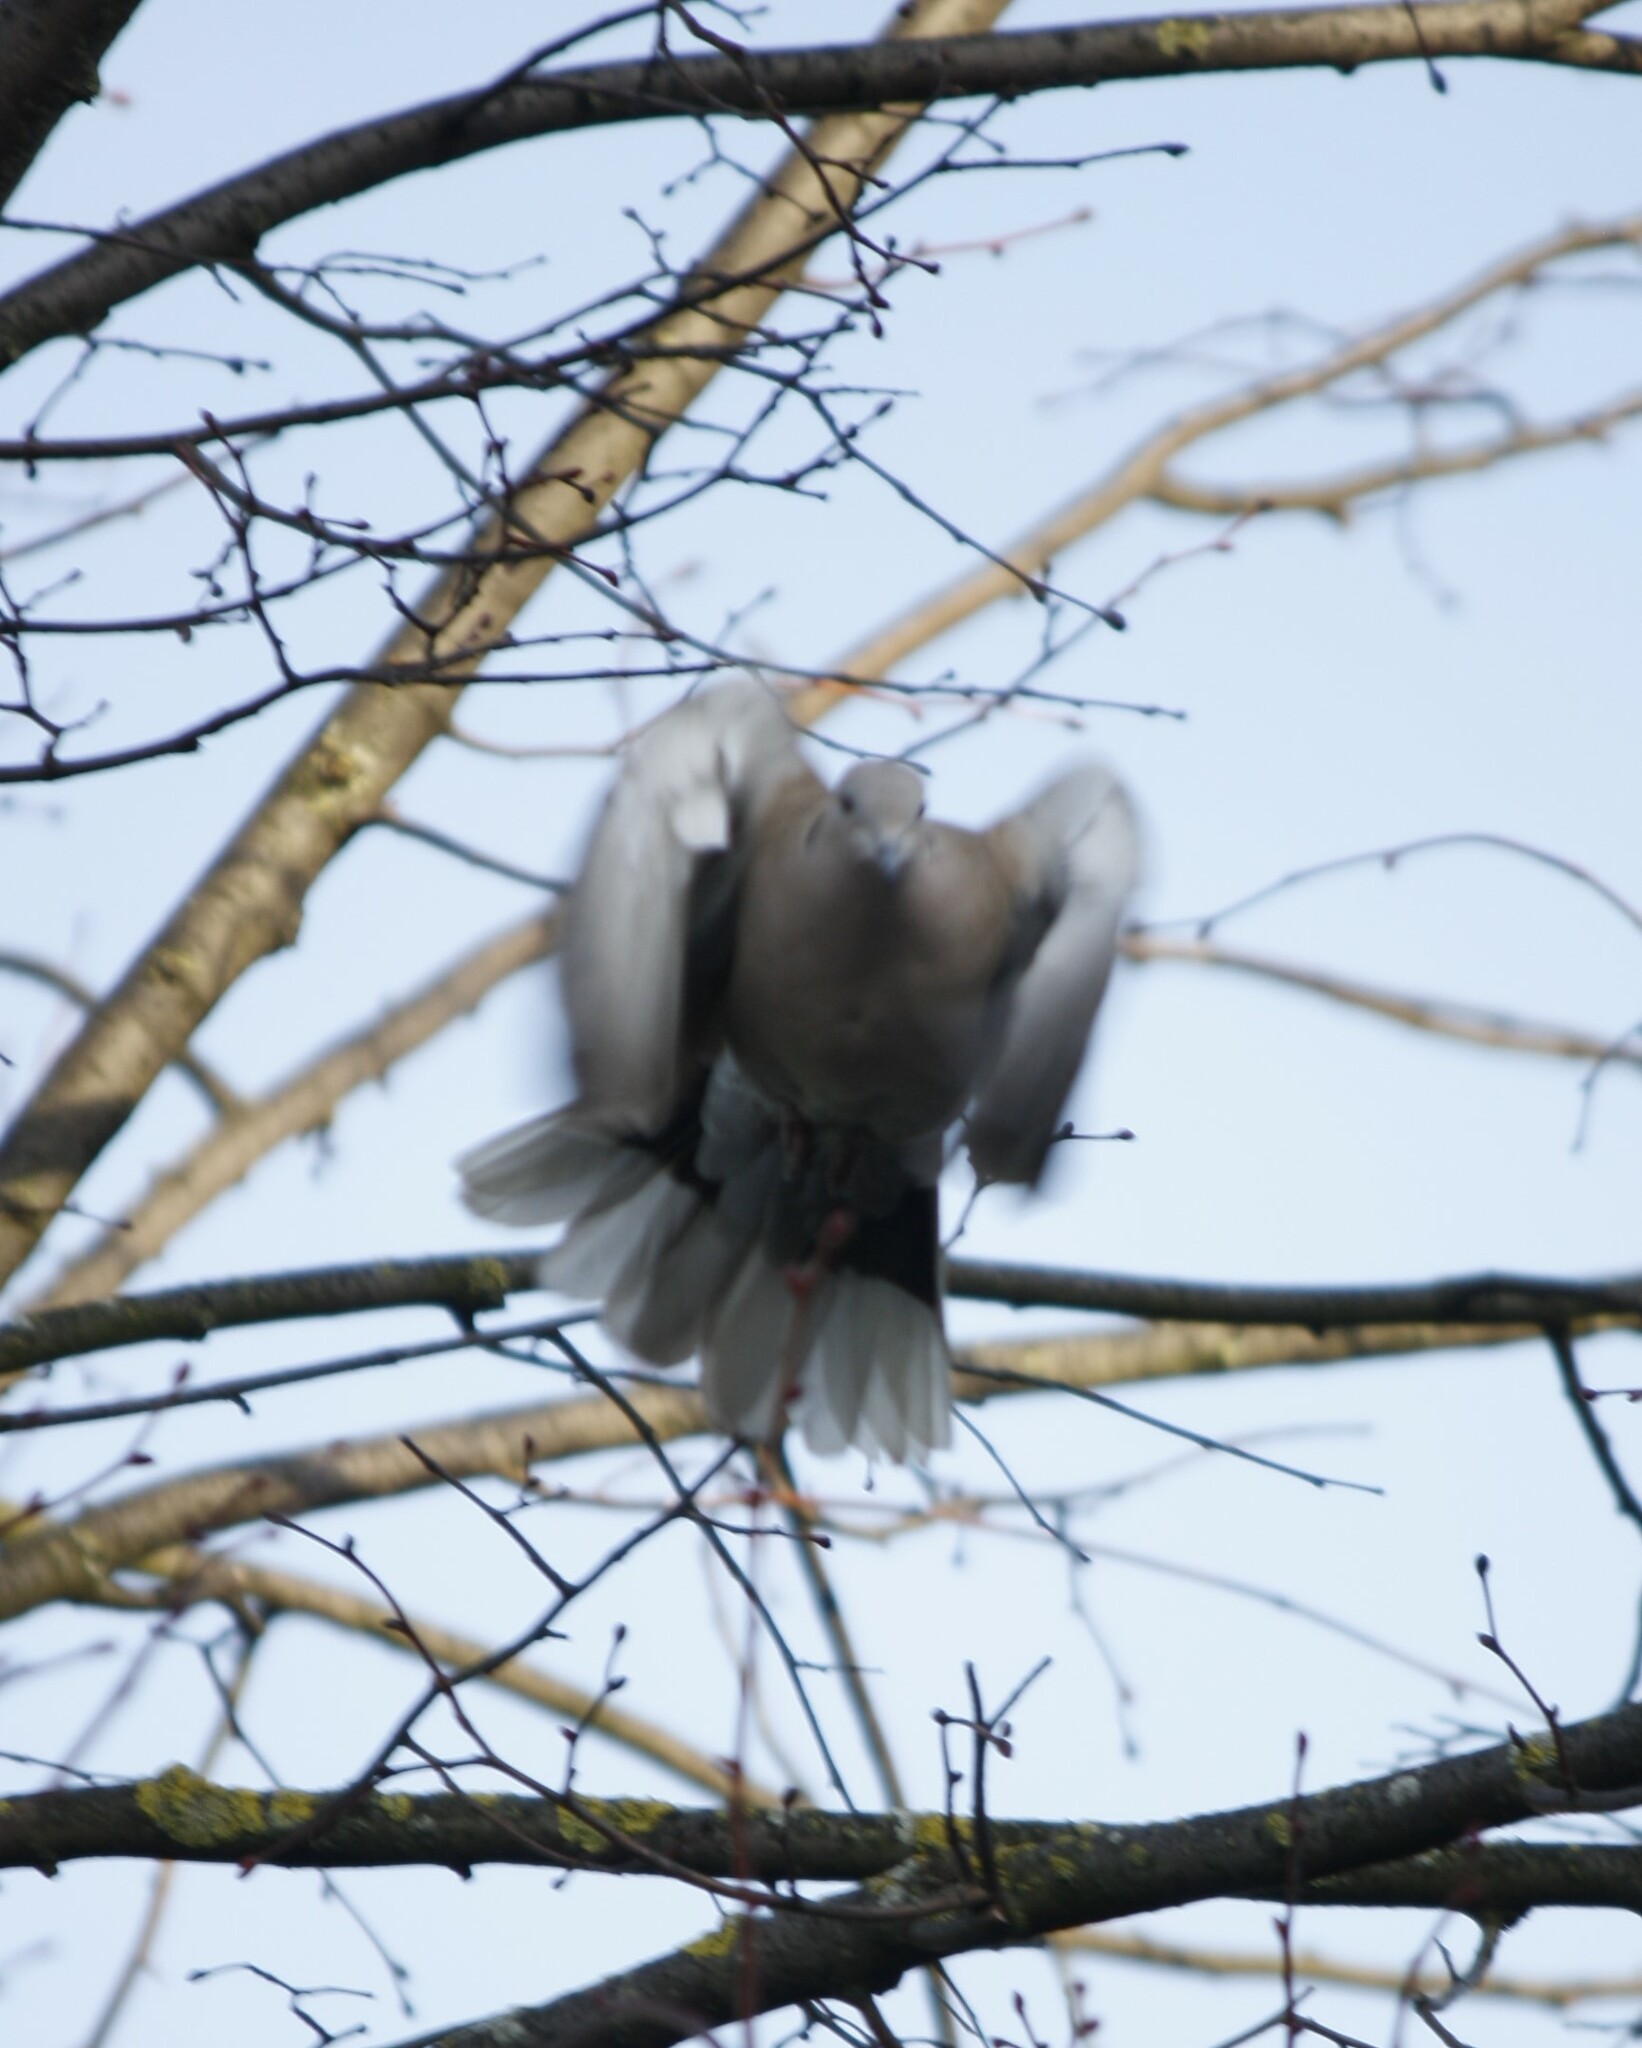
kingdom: Animalia
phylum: Chordata
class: Aves
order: Columbiformes
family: Columbidae
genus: Streptopelia
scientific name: Streptopelia decaocto
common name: Eurasian collared dove
